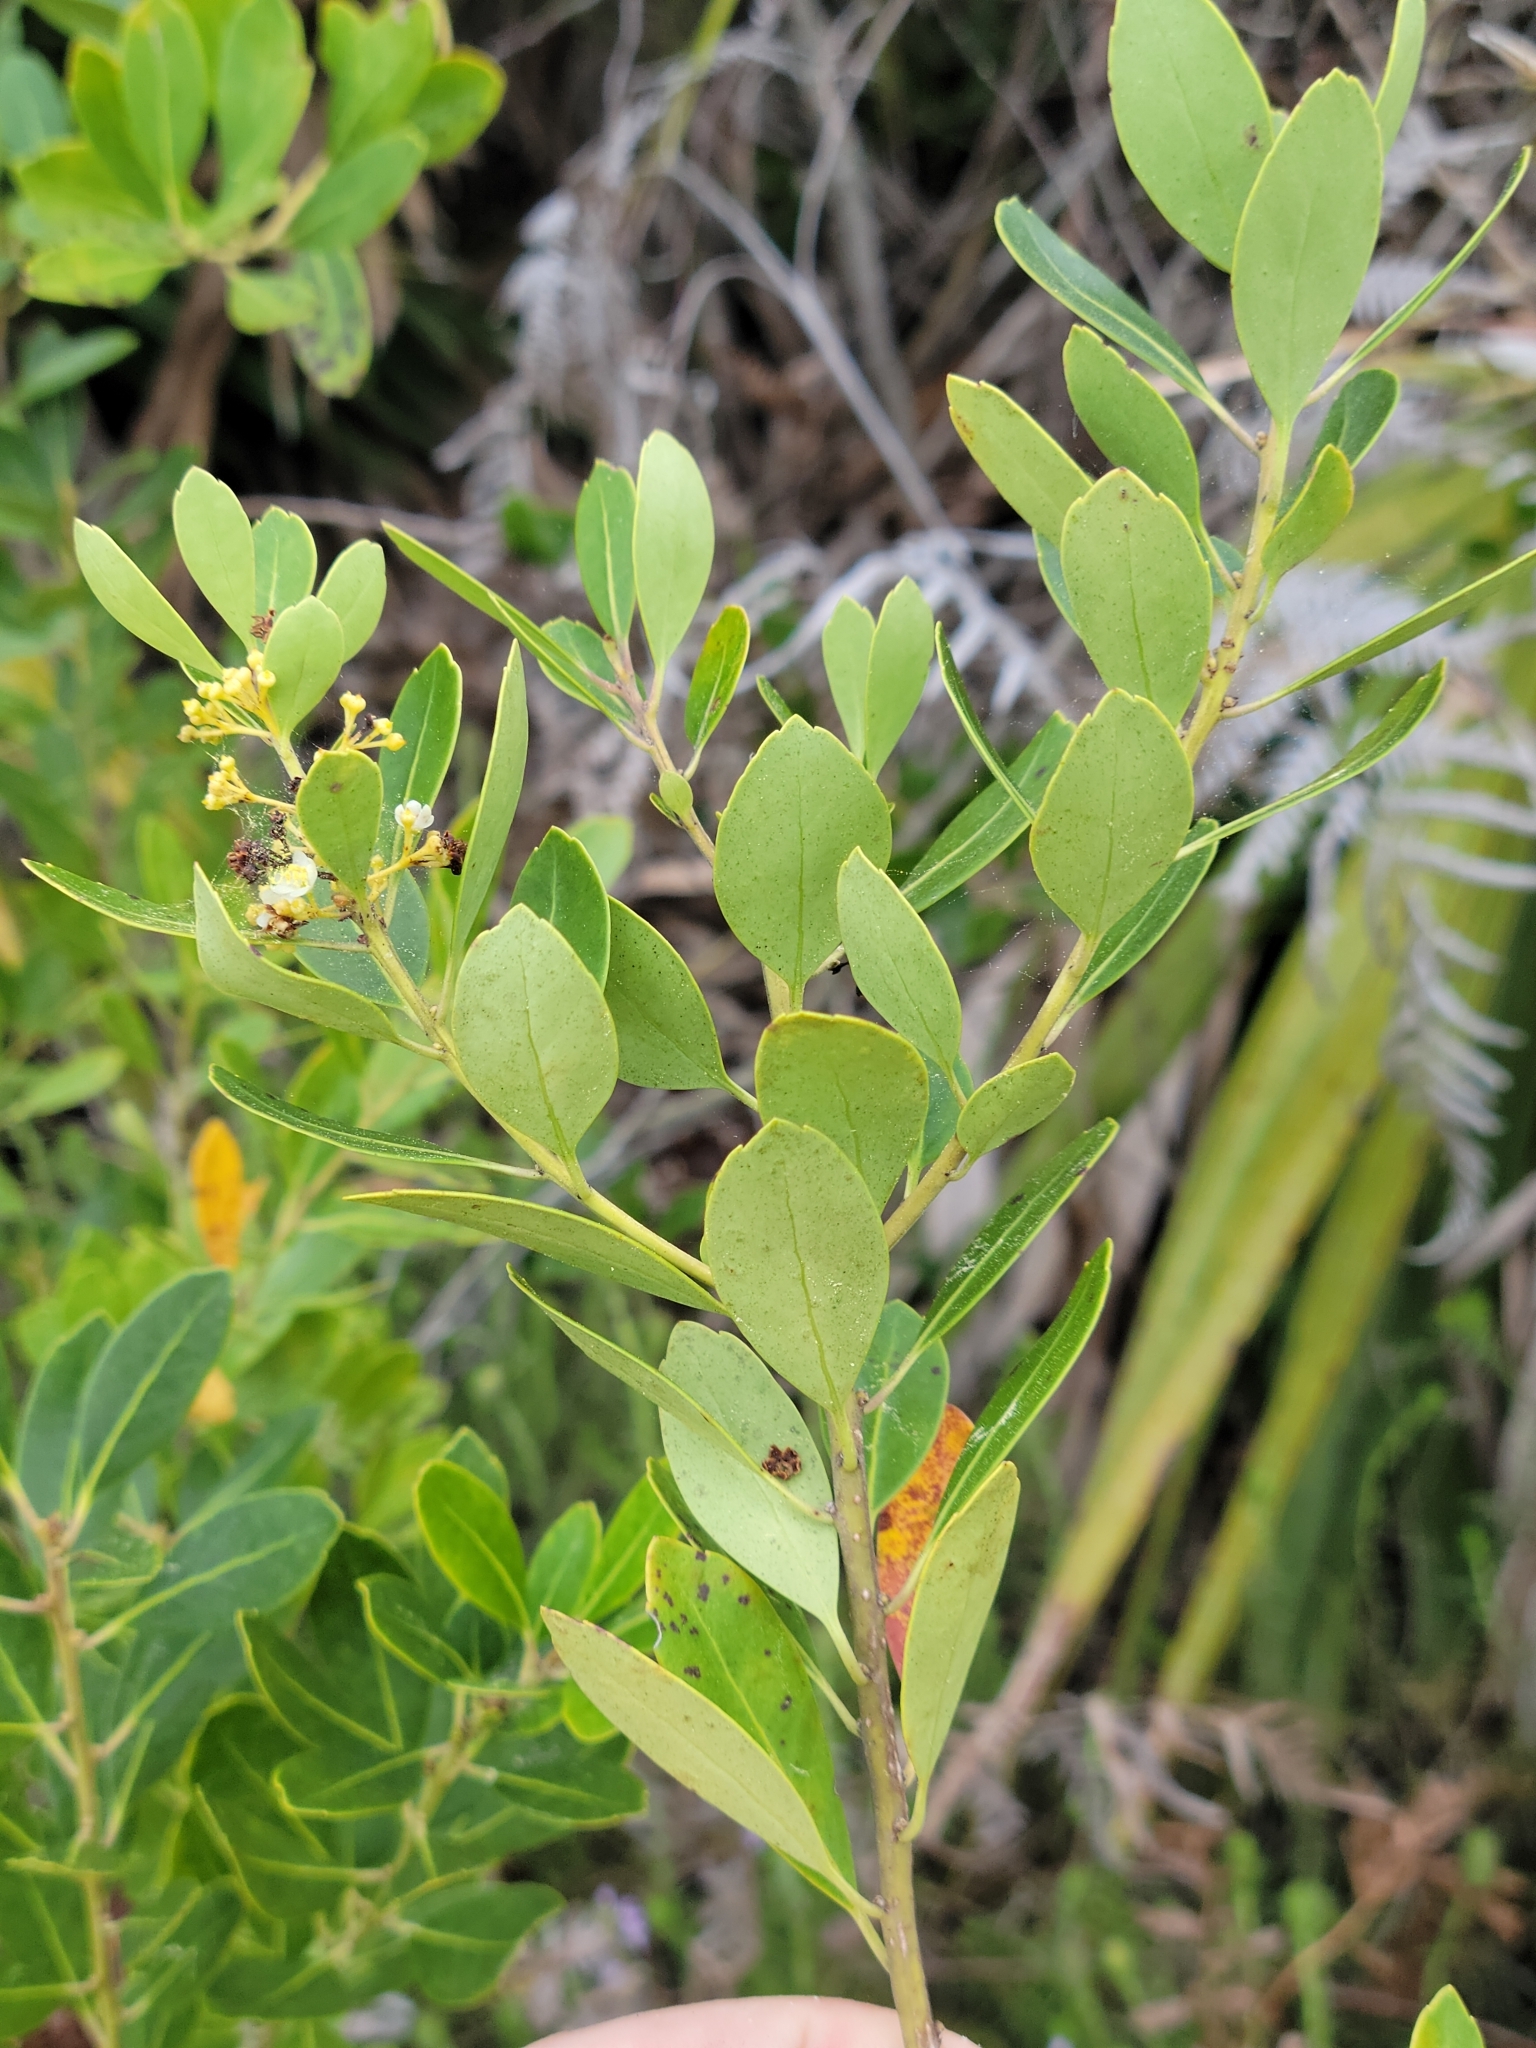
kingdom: Plantae
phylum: Tracheophyta
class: Magnoliopsida
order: Aquifoliales
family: Aquifoliaceae
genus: Ilex
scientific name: Ilex glabra
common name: Bitter gallberry
